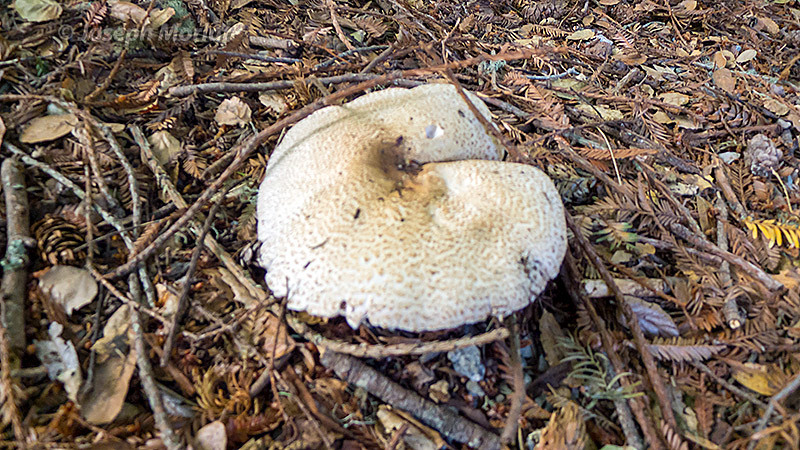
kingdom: Fungi
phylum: Basidiomycota
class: Agaricomycetes
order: Agaricales
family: Agaricaceae
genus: Agaricus
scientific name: Agaricus augustus
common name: Prince
